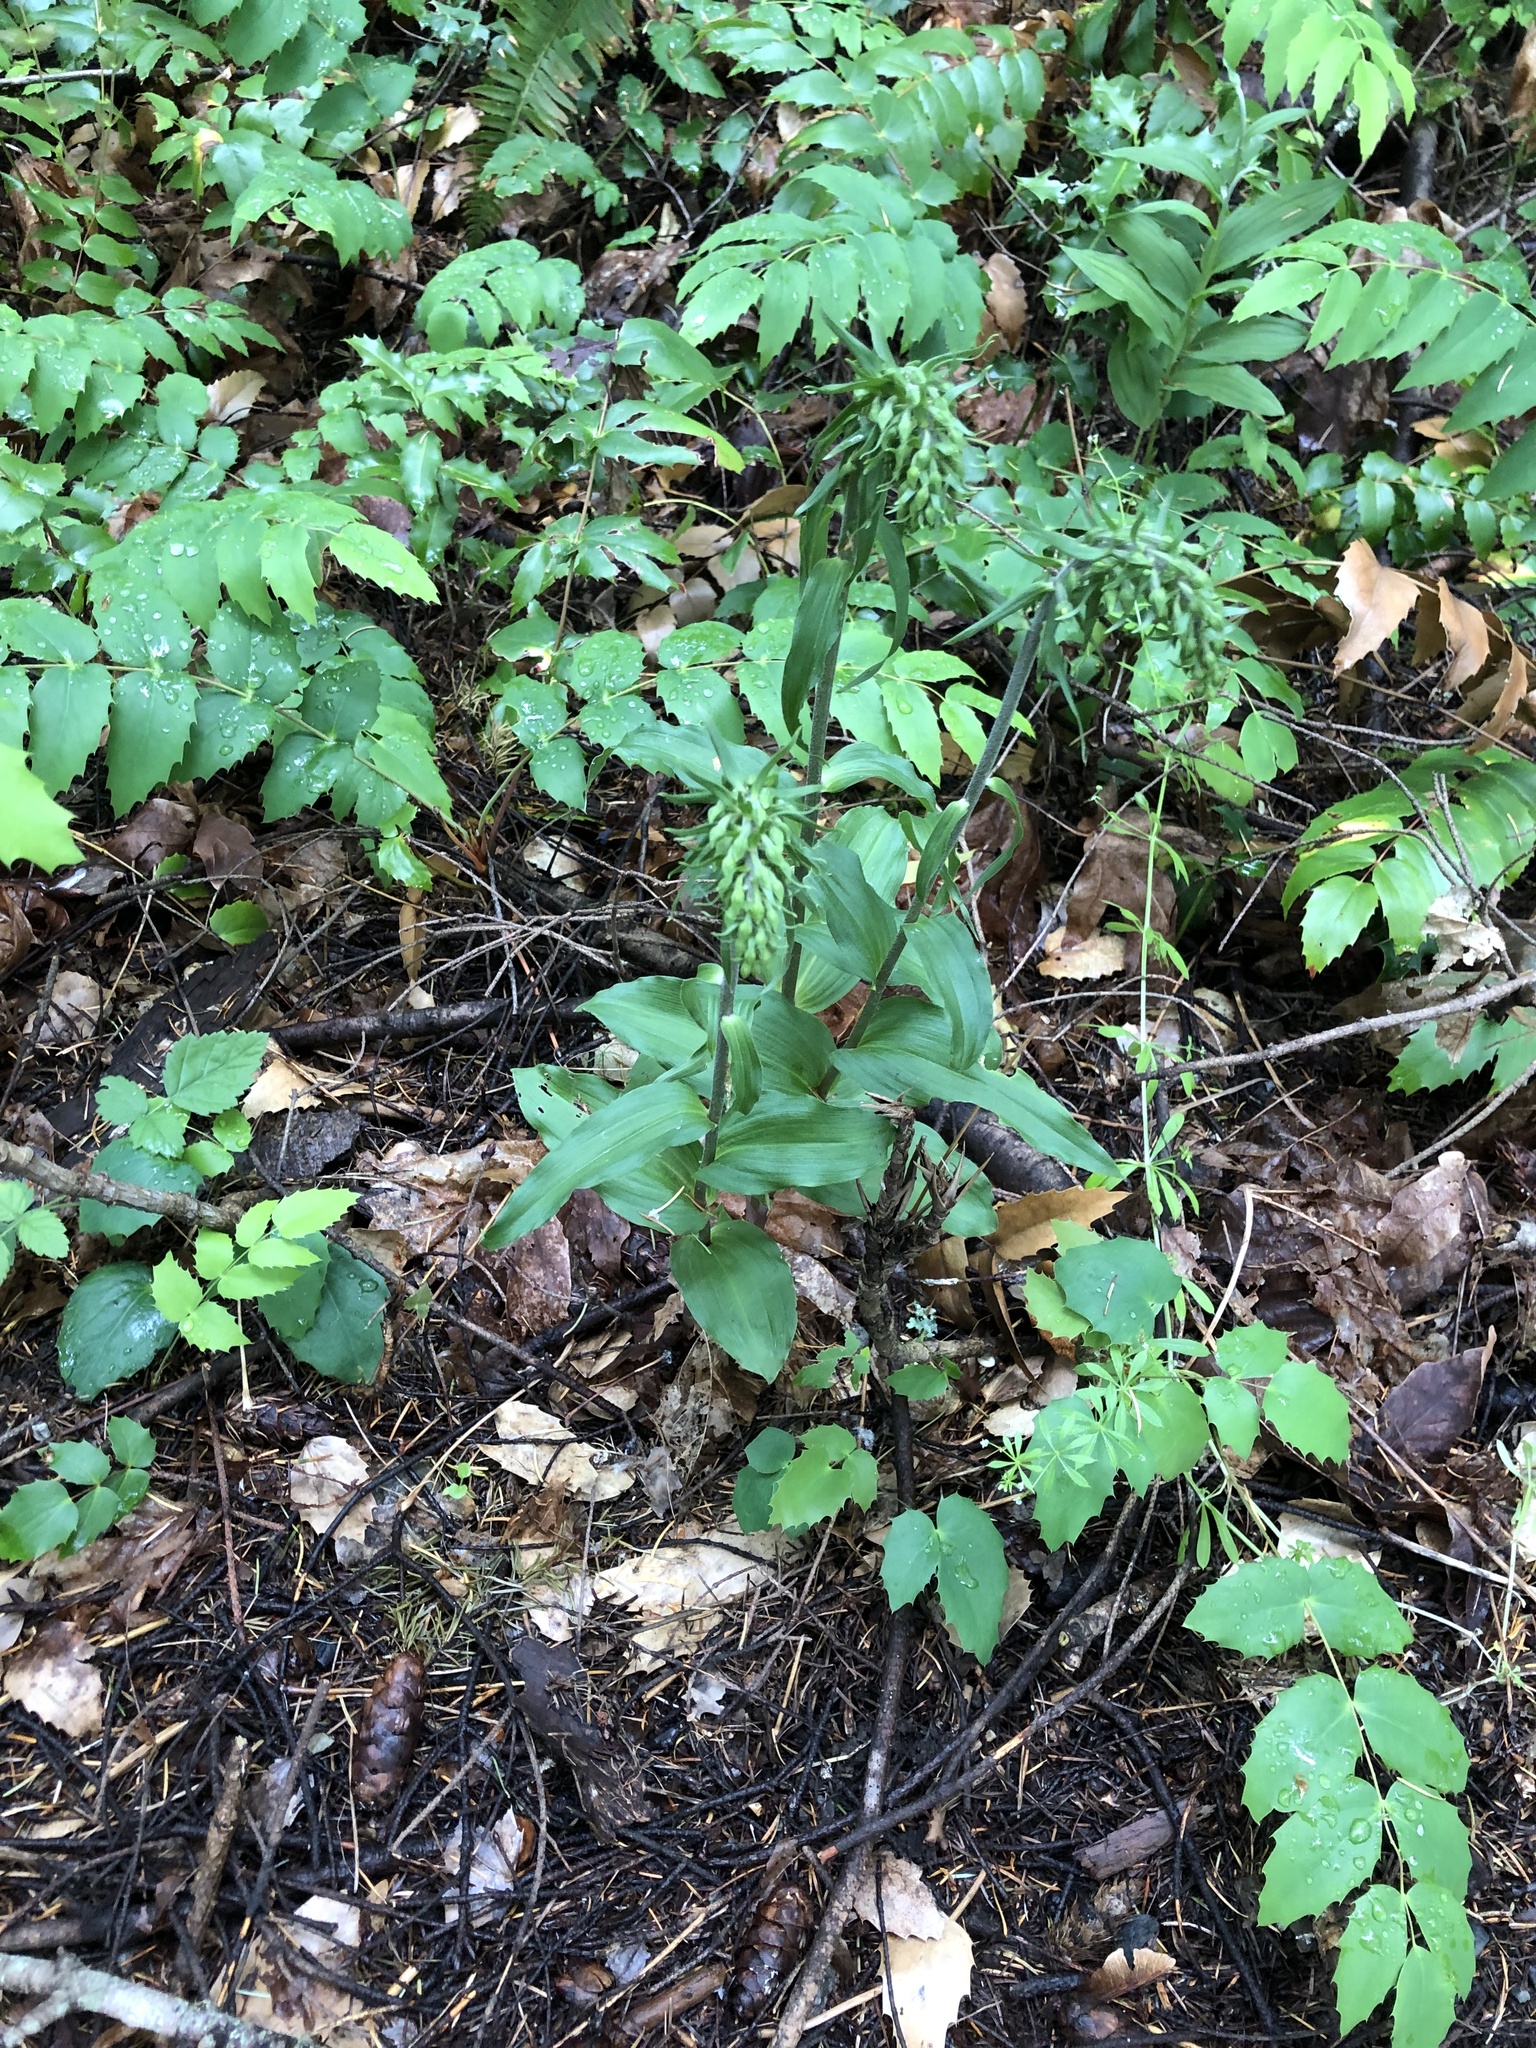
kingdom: Plantae
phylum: Tracheophyta
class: Liliopsida
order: Asparagales
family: Orchidaceae
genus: Epipactis
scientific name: Epipactis helleborine
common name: Broad-leaved helleborine
